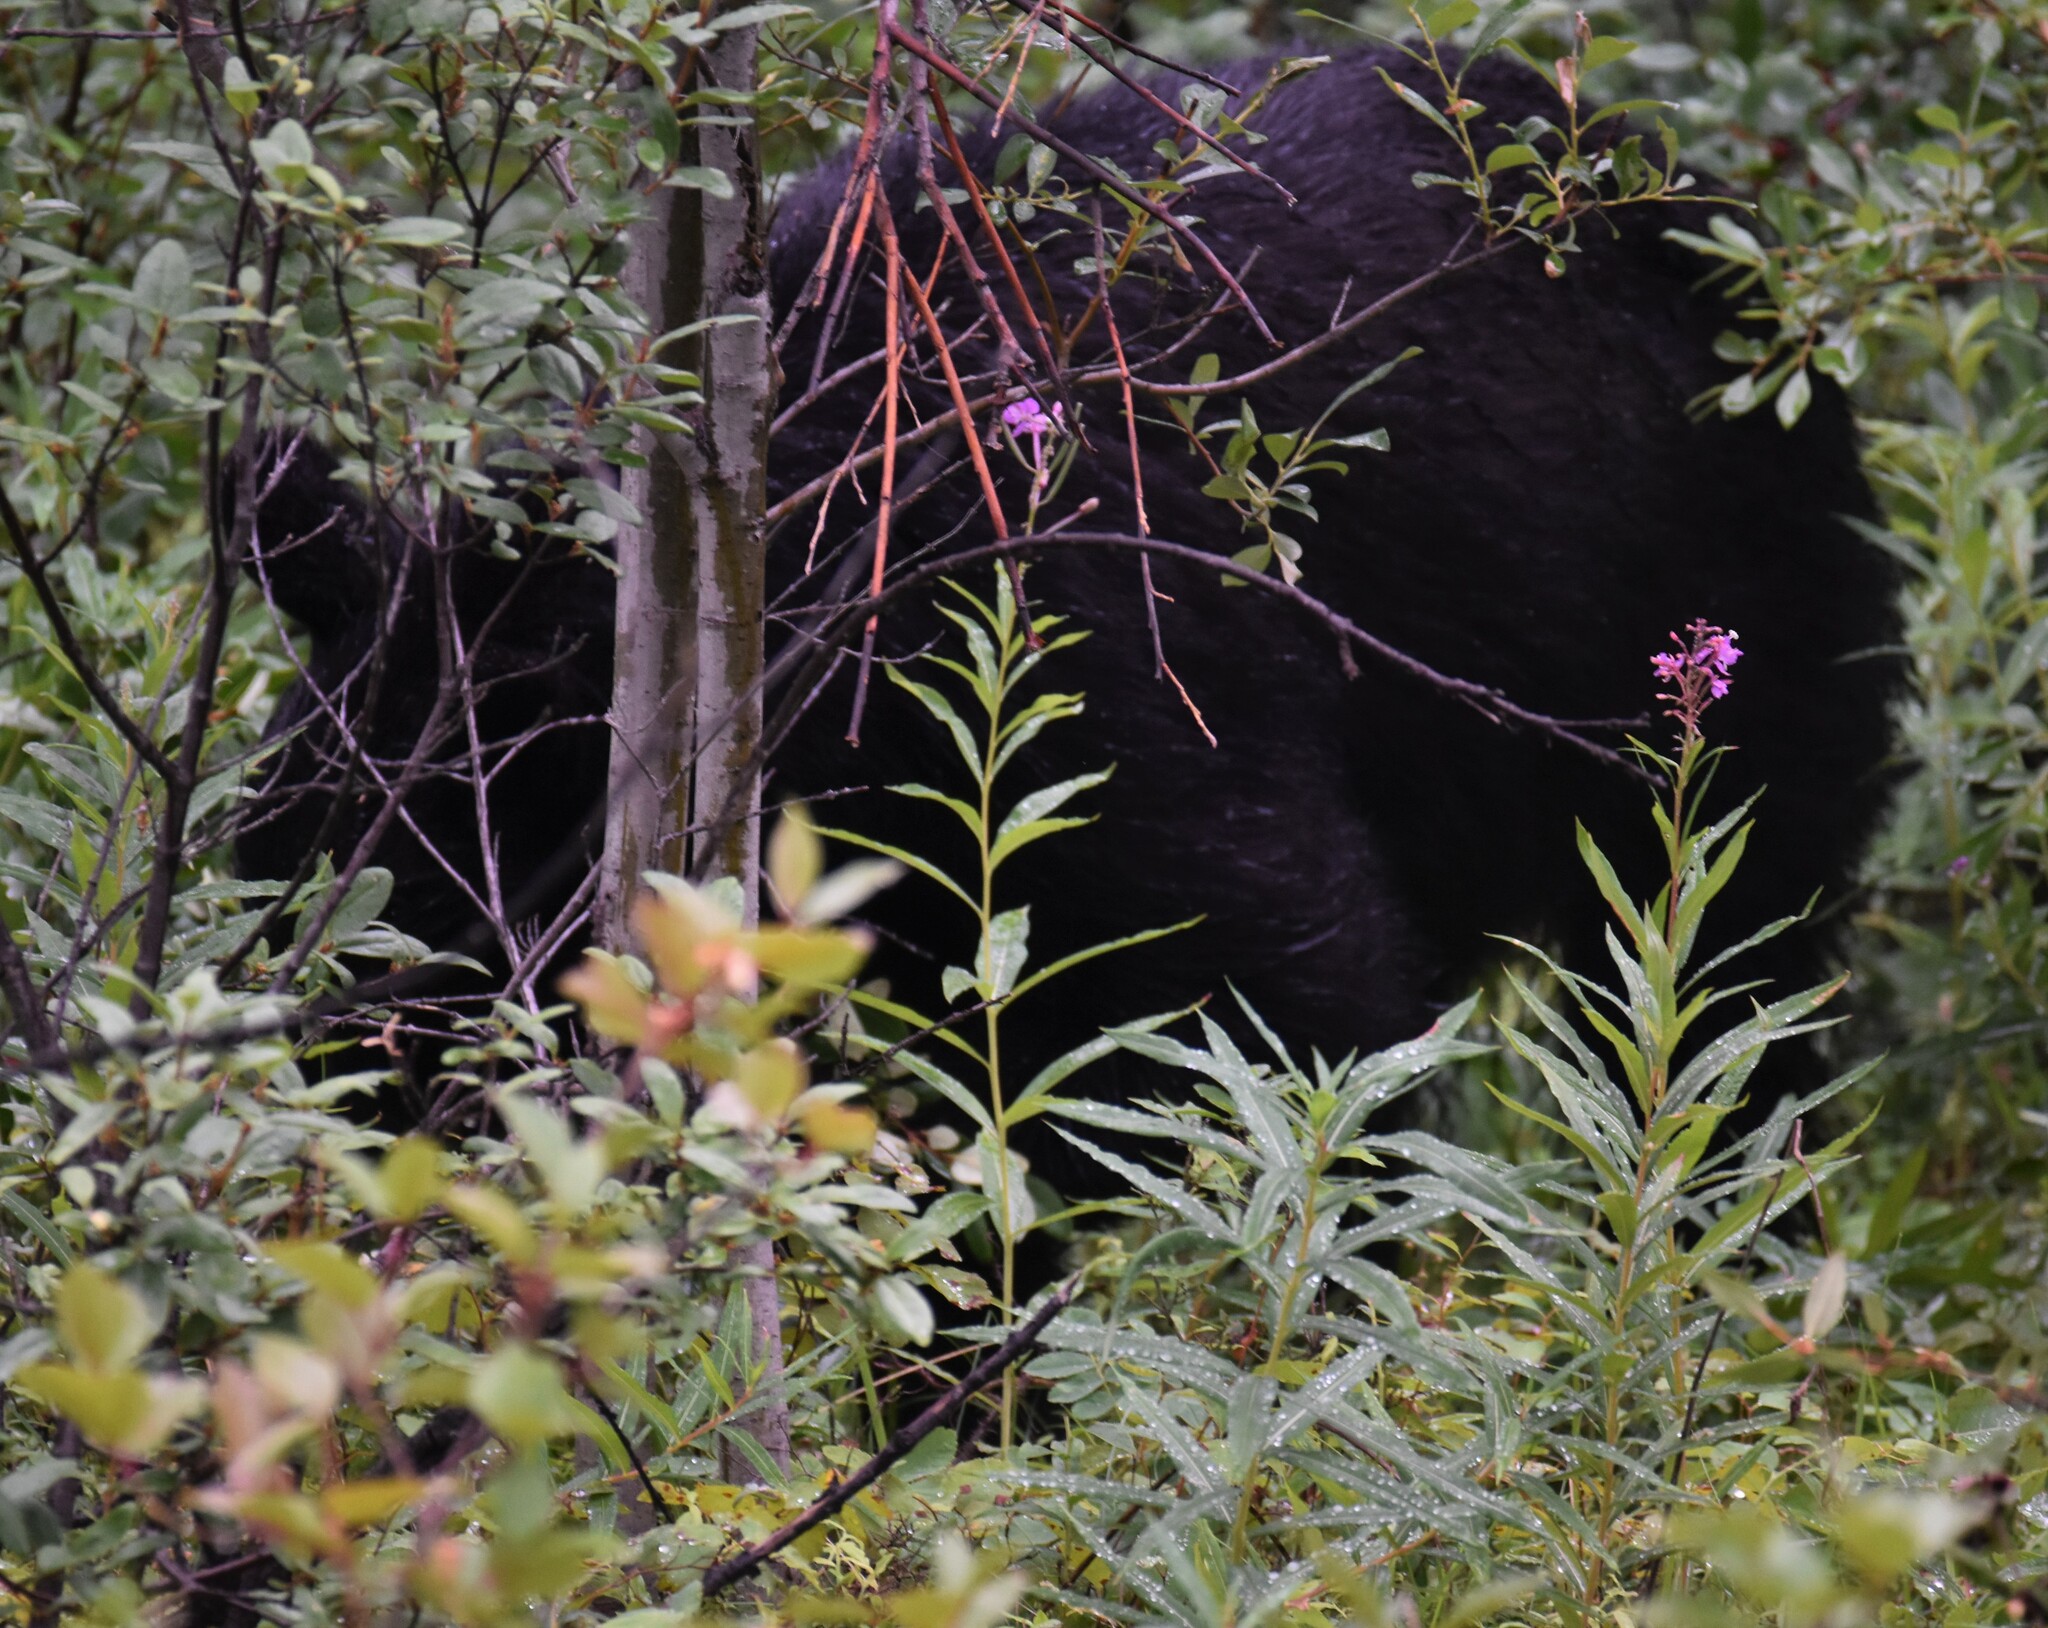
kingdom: Animalia
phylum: Chordata
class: Mammalia
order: Carnivora
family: Ursidae
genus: Ursus
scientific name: Ursus americanus
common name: American black bear
